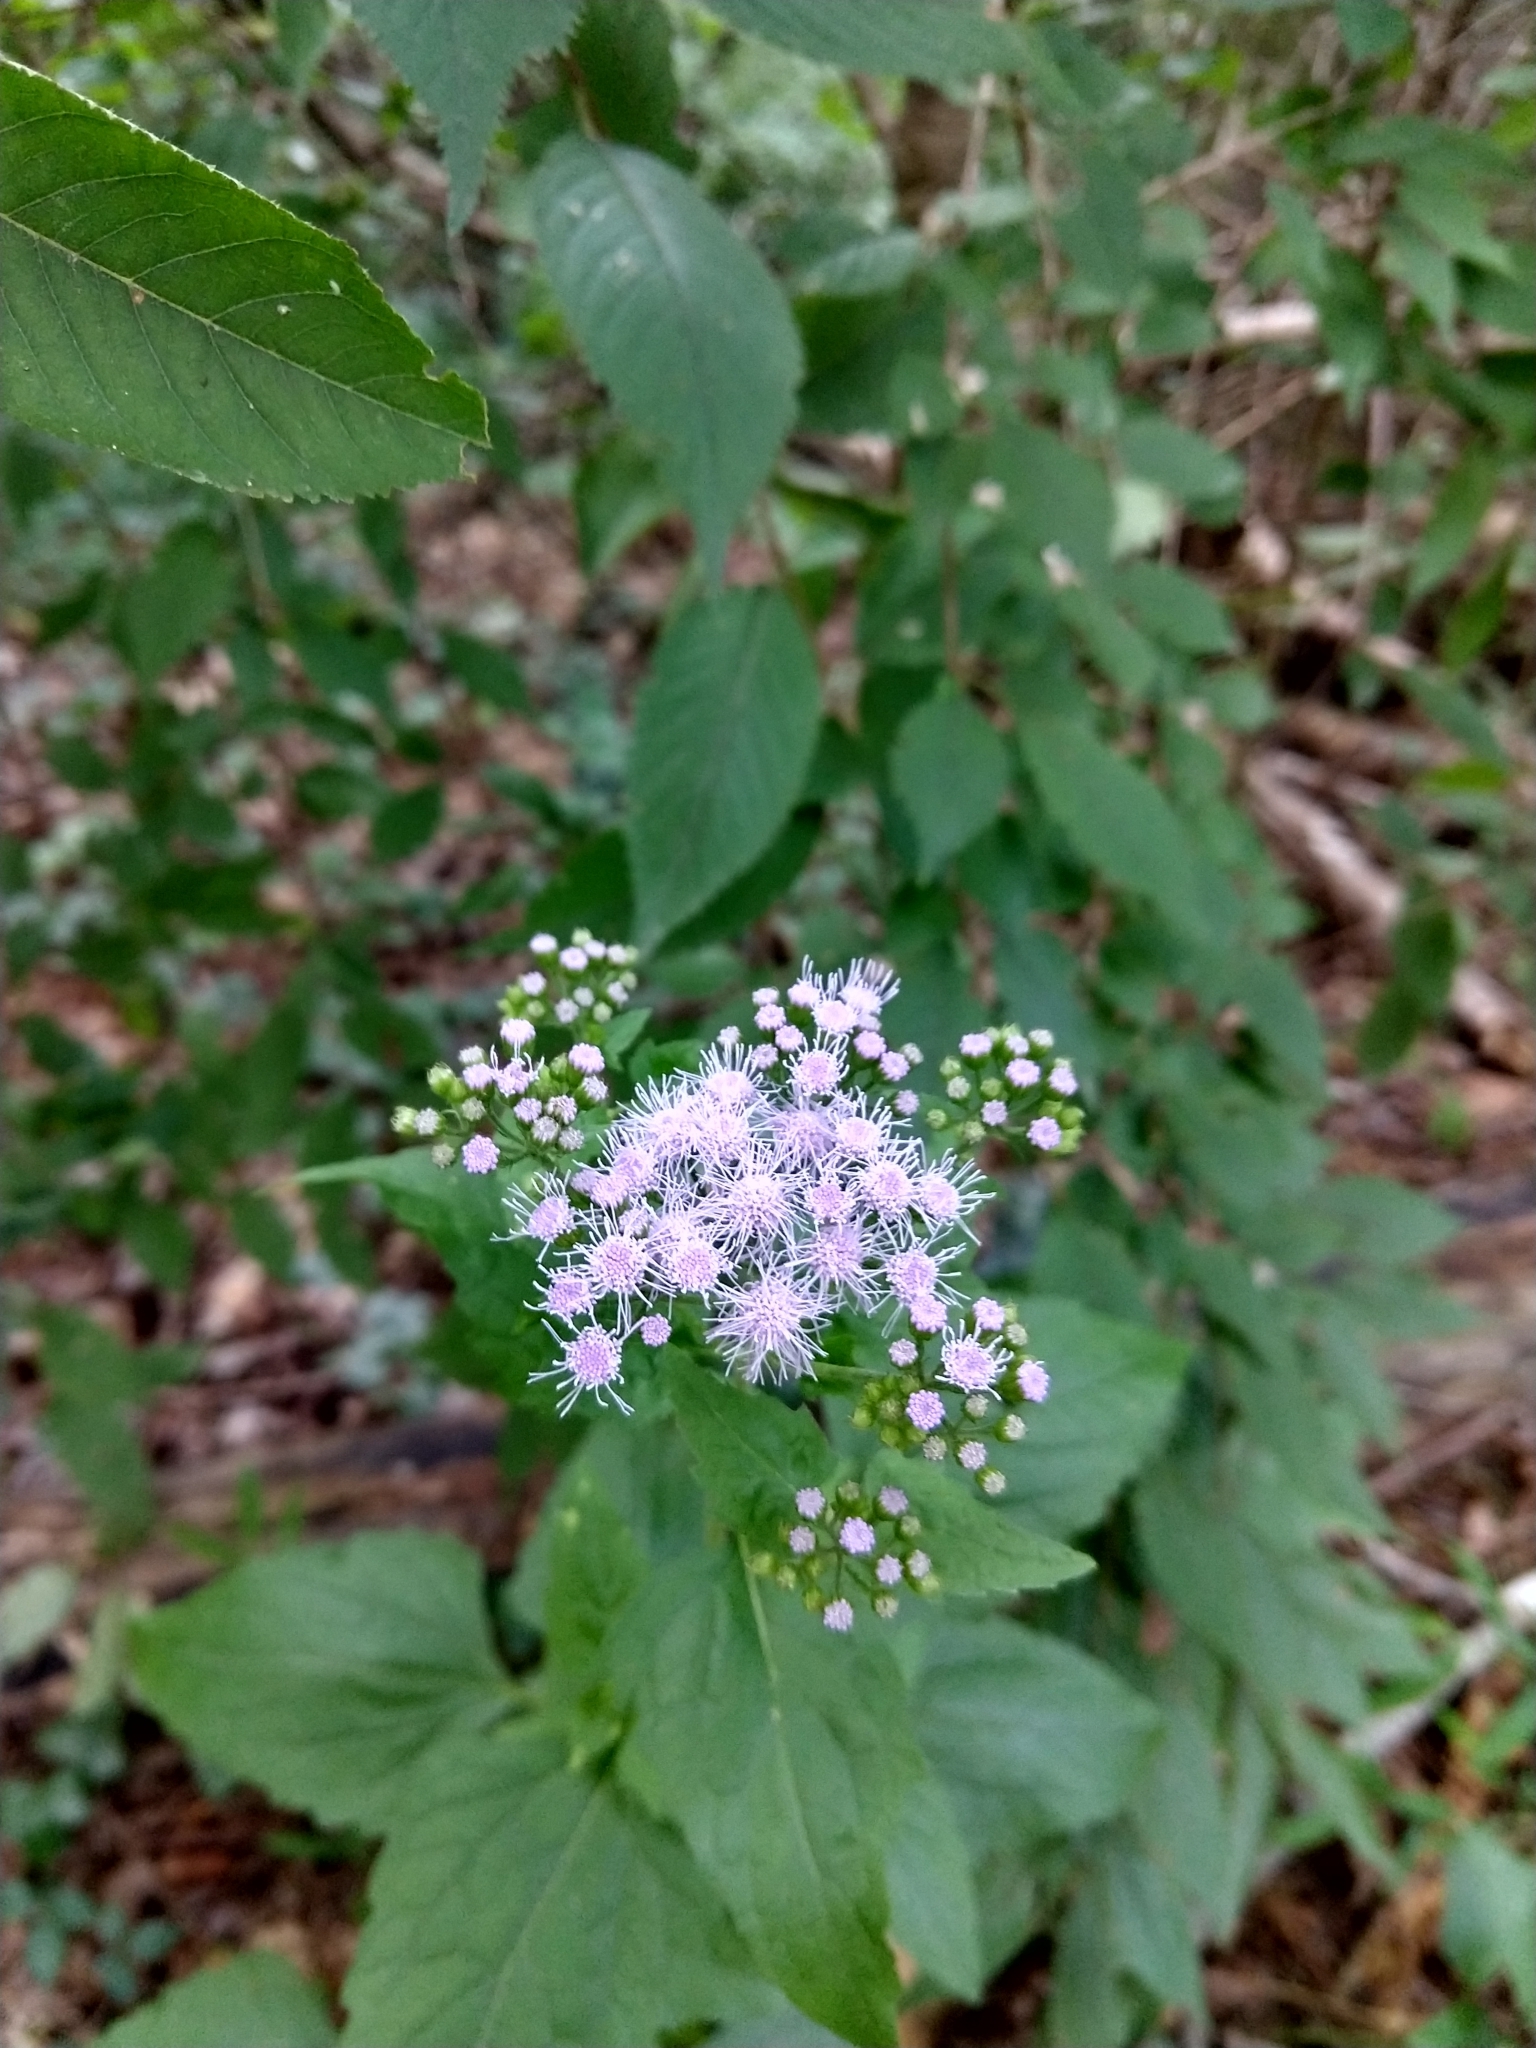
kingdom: Plantae
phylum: Tracheophyta
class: Magnoliopsida
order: Asterales
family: Asteraceae
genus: Conoclinium
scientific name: Conoclinium coelestinum
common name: Blue mistflower
